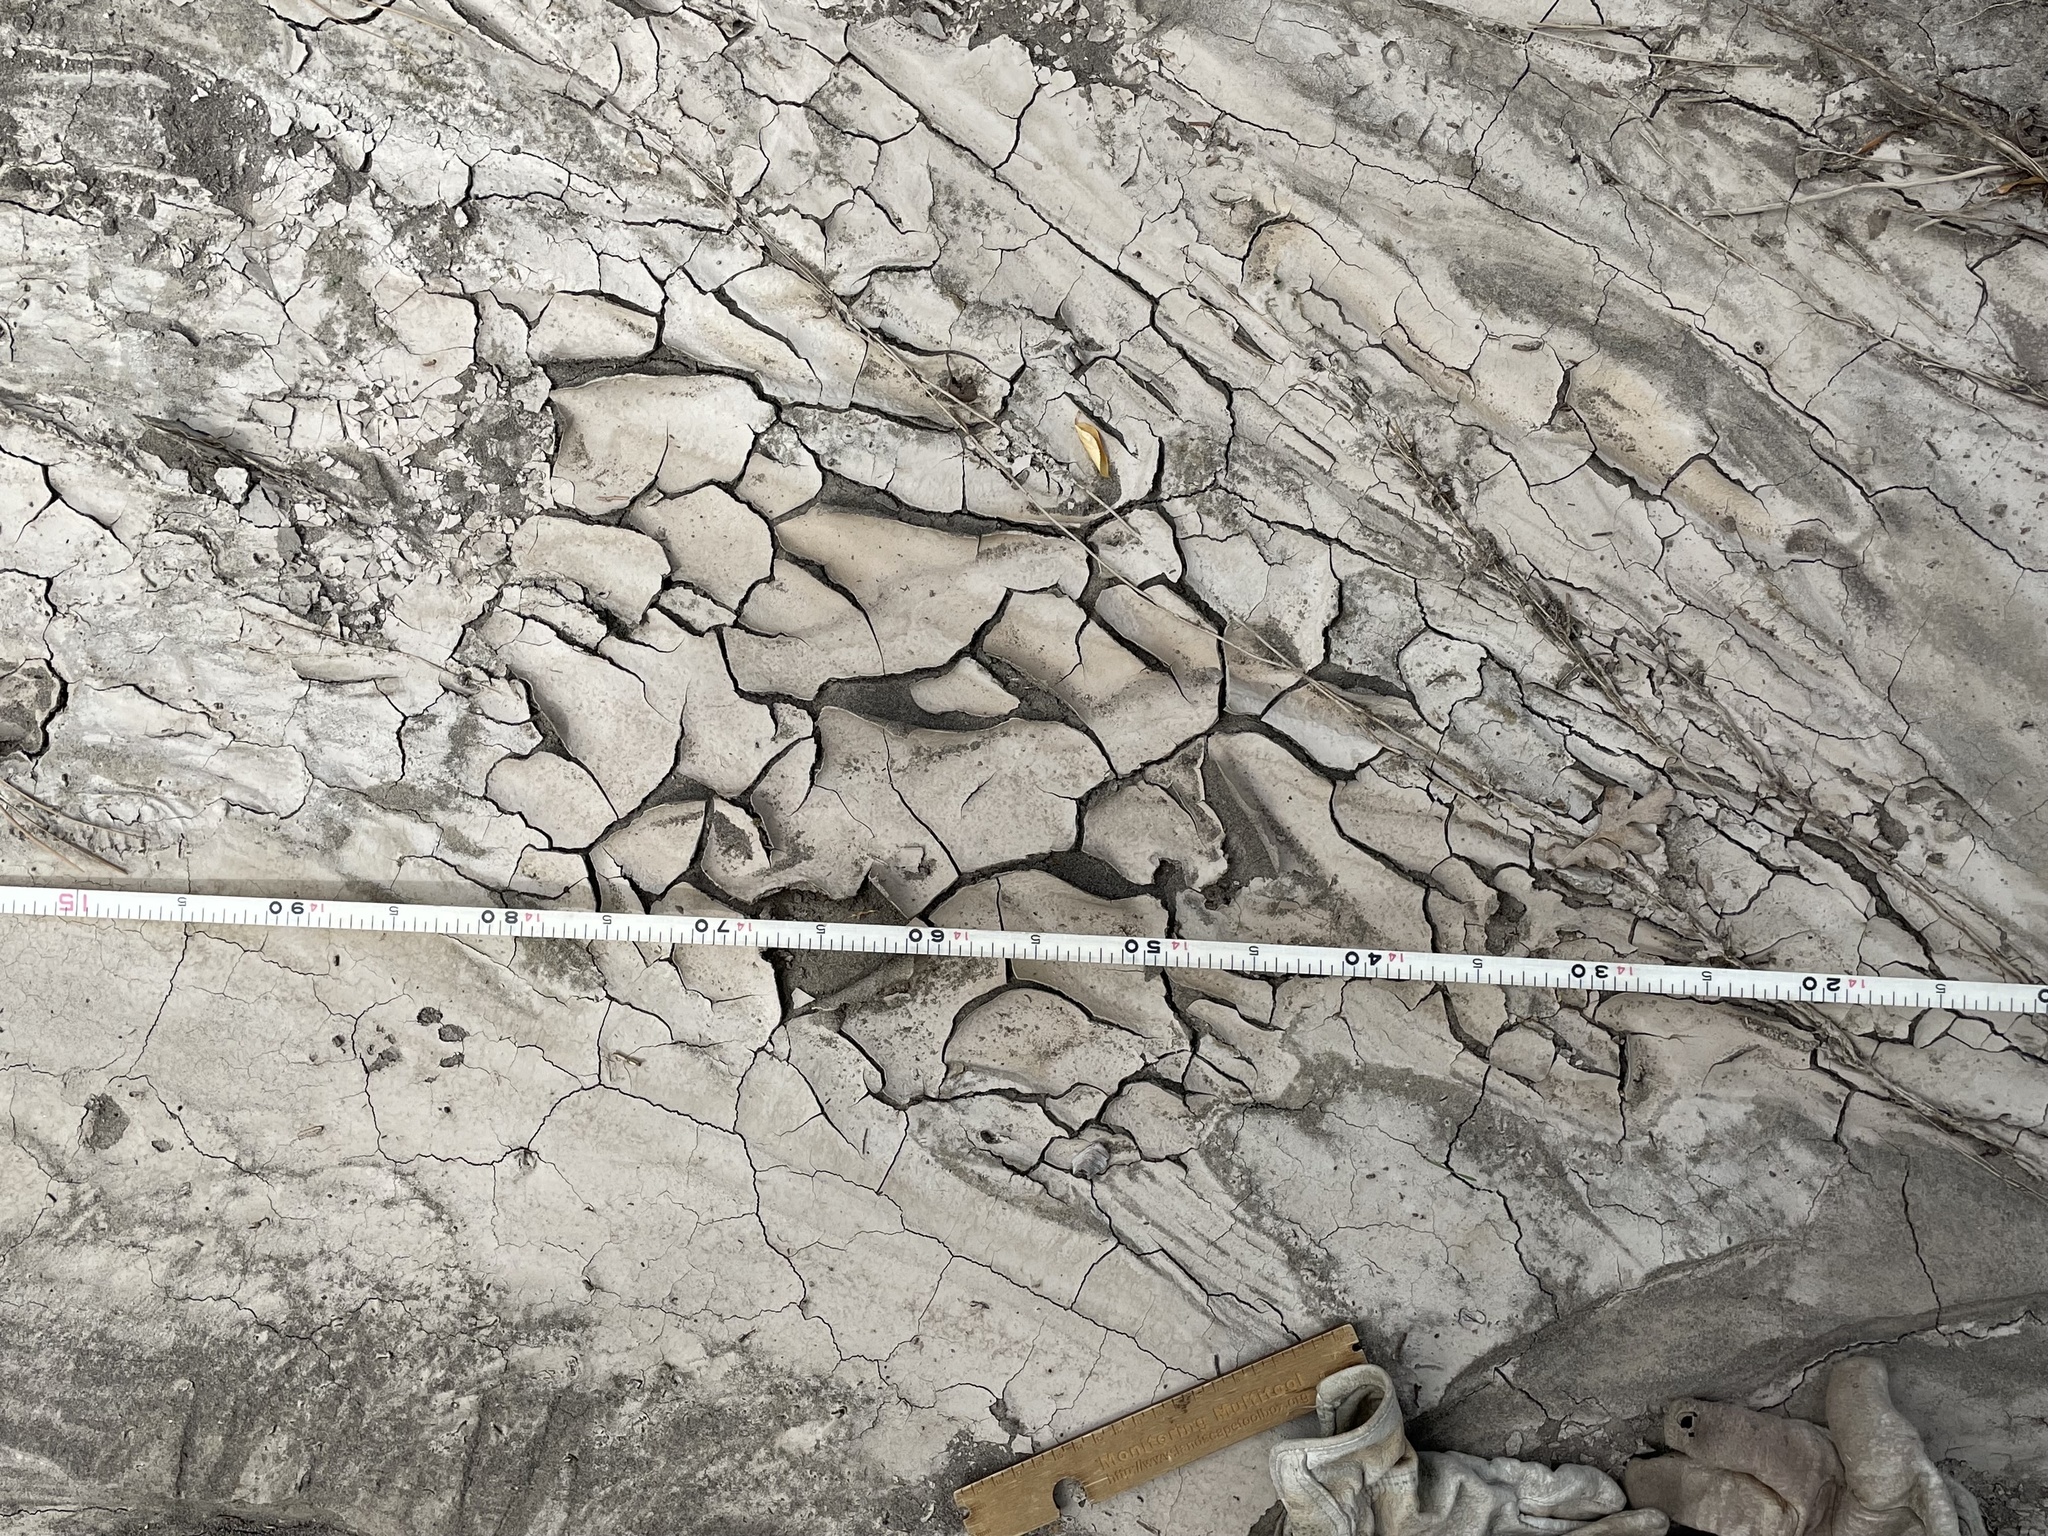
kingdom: Animalia
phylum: Chordata
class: Mammalia
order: Carnivora
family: Felidae
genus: Lynx
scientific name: Lynx rufus
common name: Bobcat
